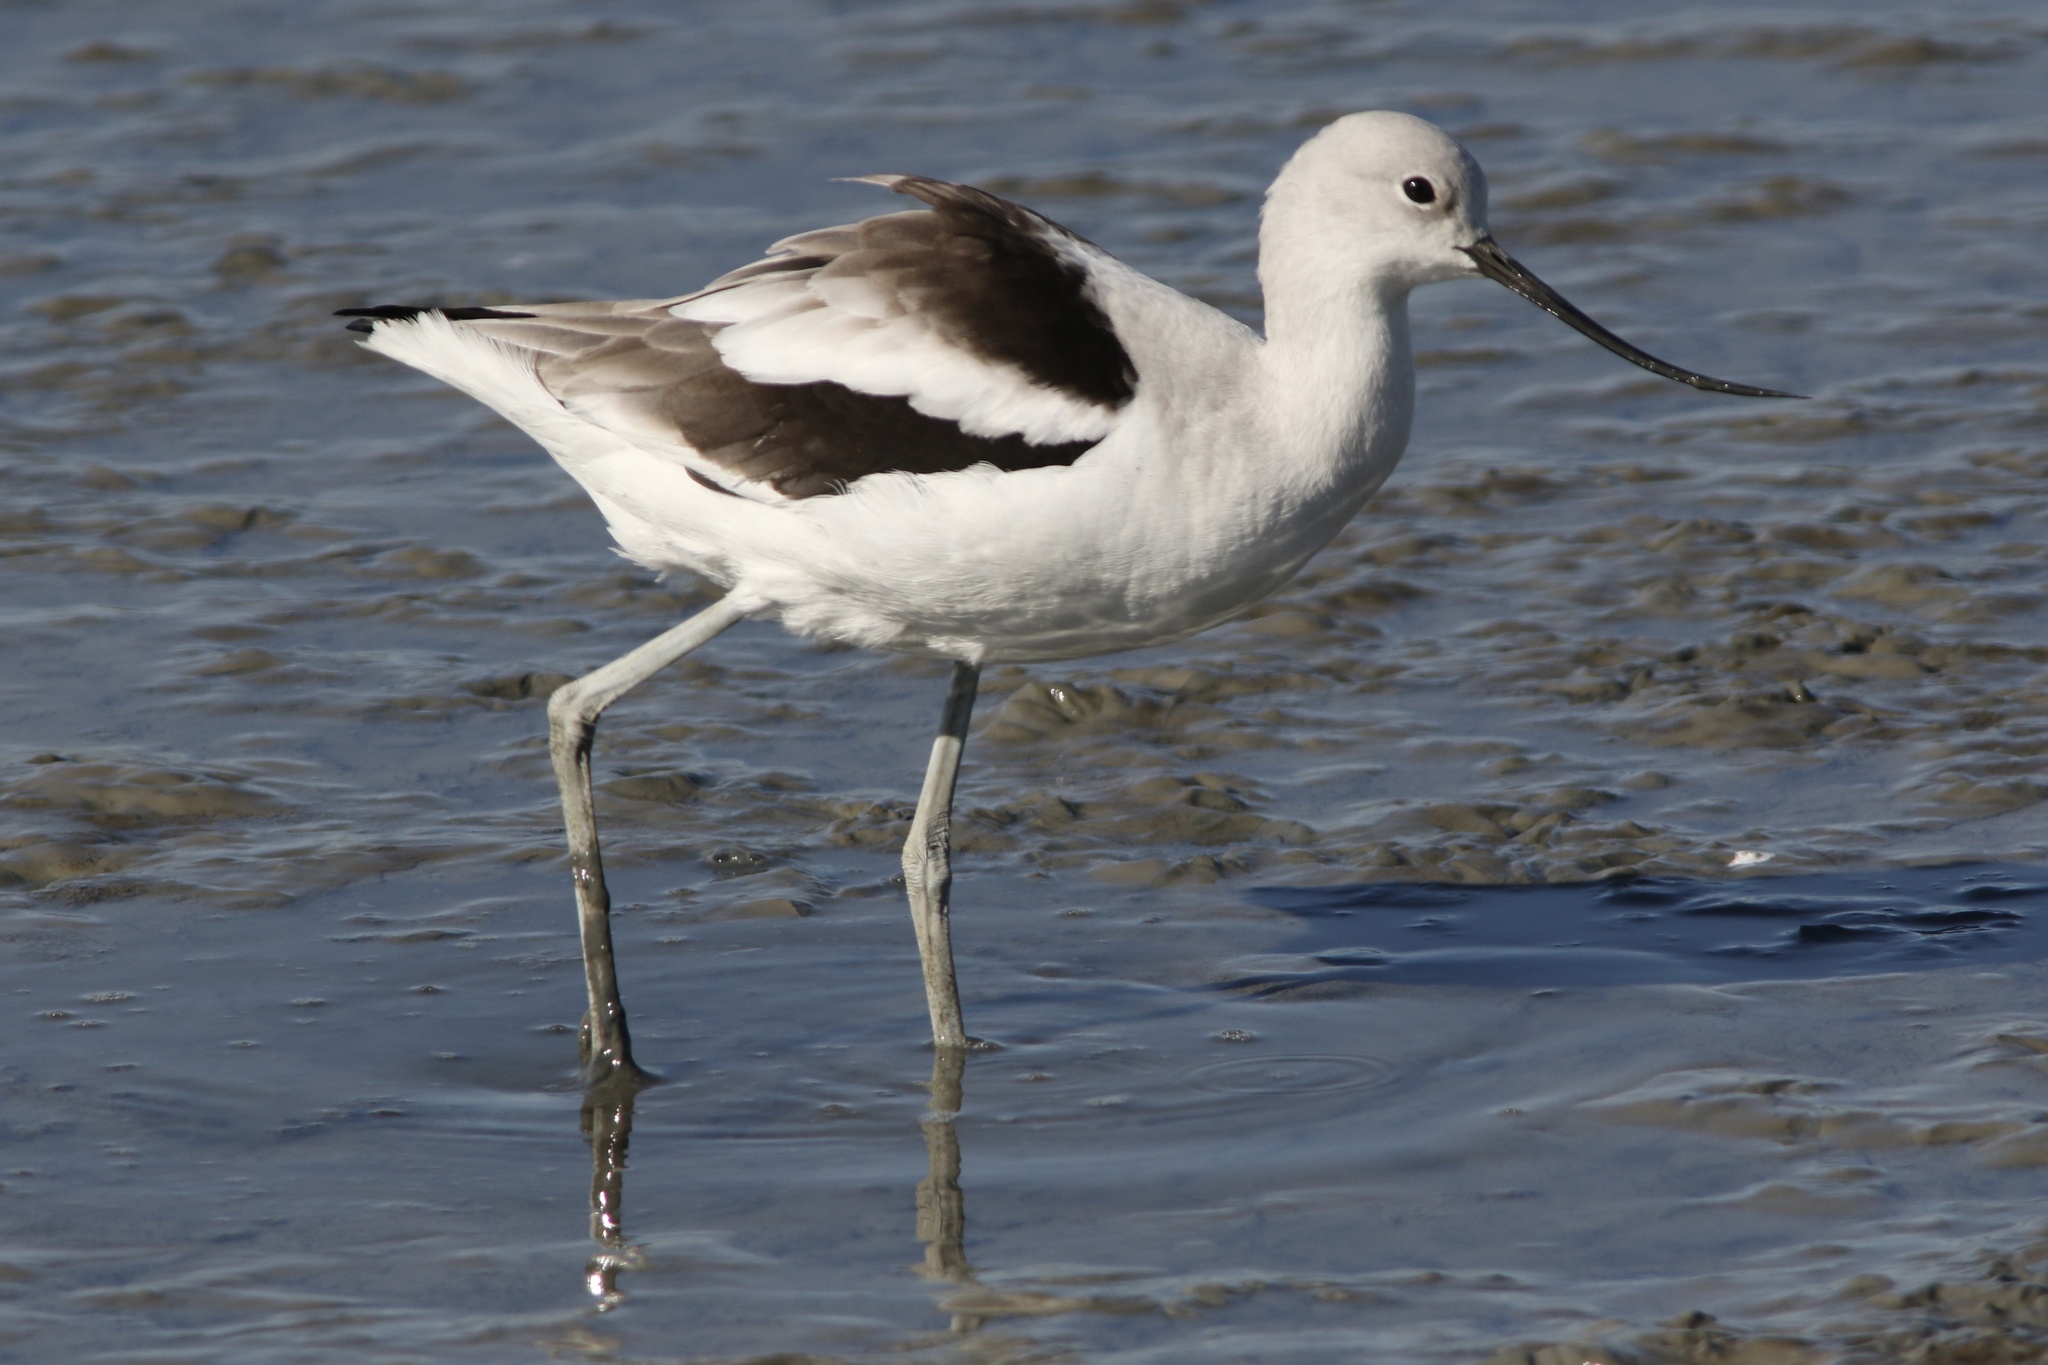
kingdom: Animalia
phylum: Chordata
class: Aves
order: Charadriiformes
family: Recurvirostridae
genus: Recurvirostra
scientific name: Recurvirostra americana
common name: American avocet
